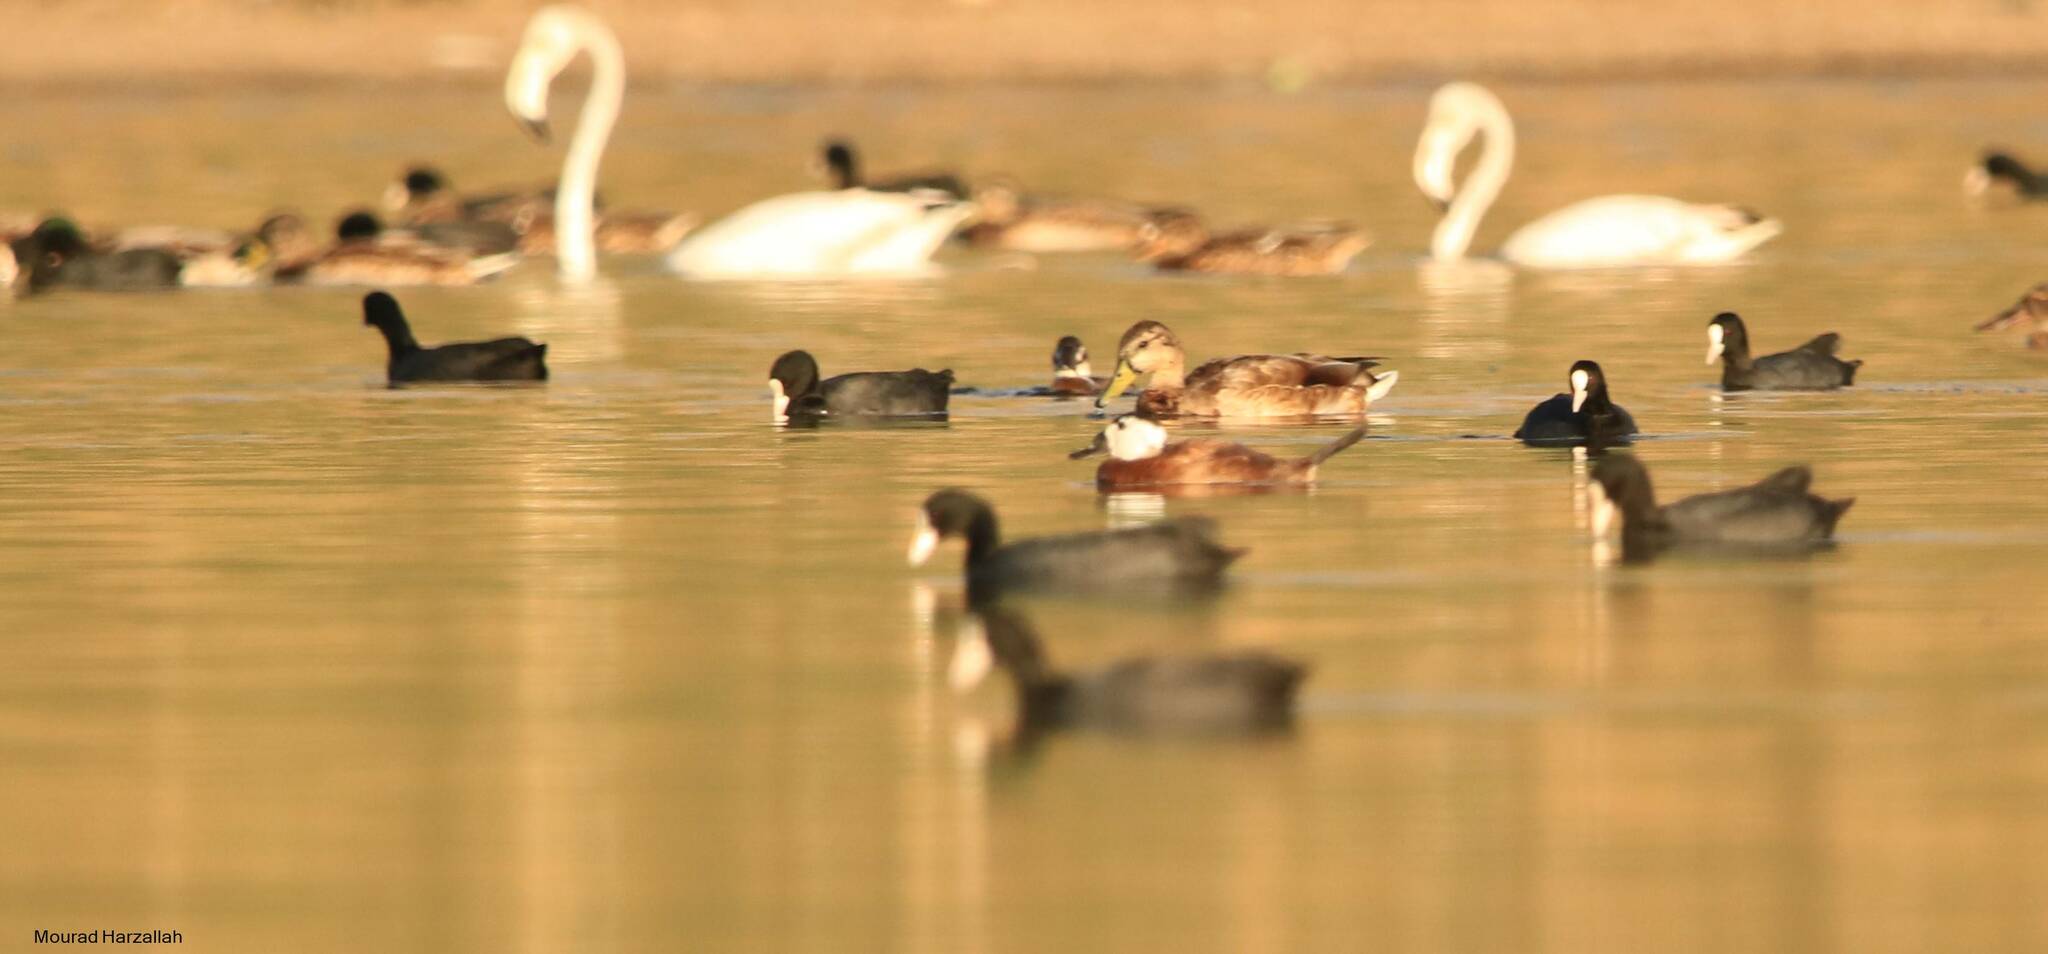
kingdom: Animalia
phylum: Chordata
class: Aves
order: Anseriformes
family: Anatidae
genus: Oxyura
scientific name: Oxyura leucocephala
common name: White-headed duck
